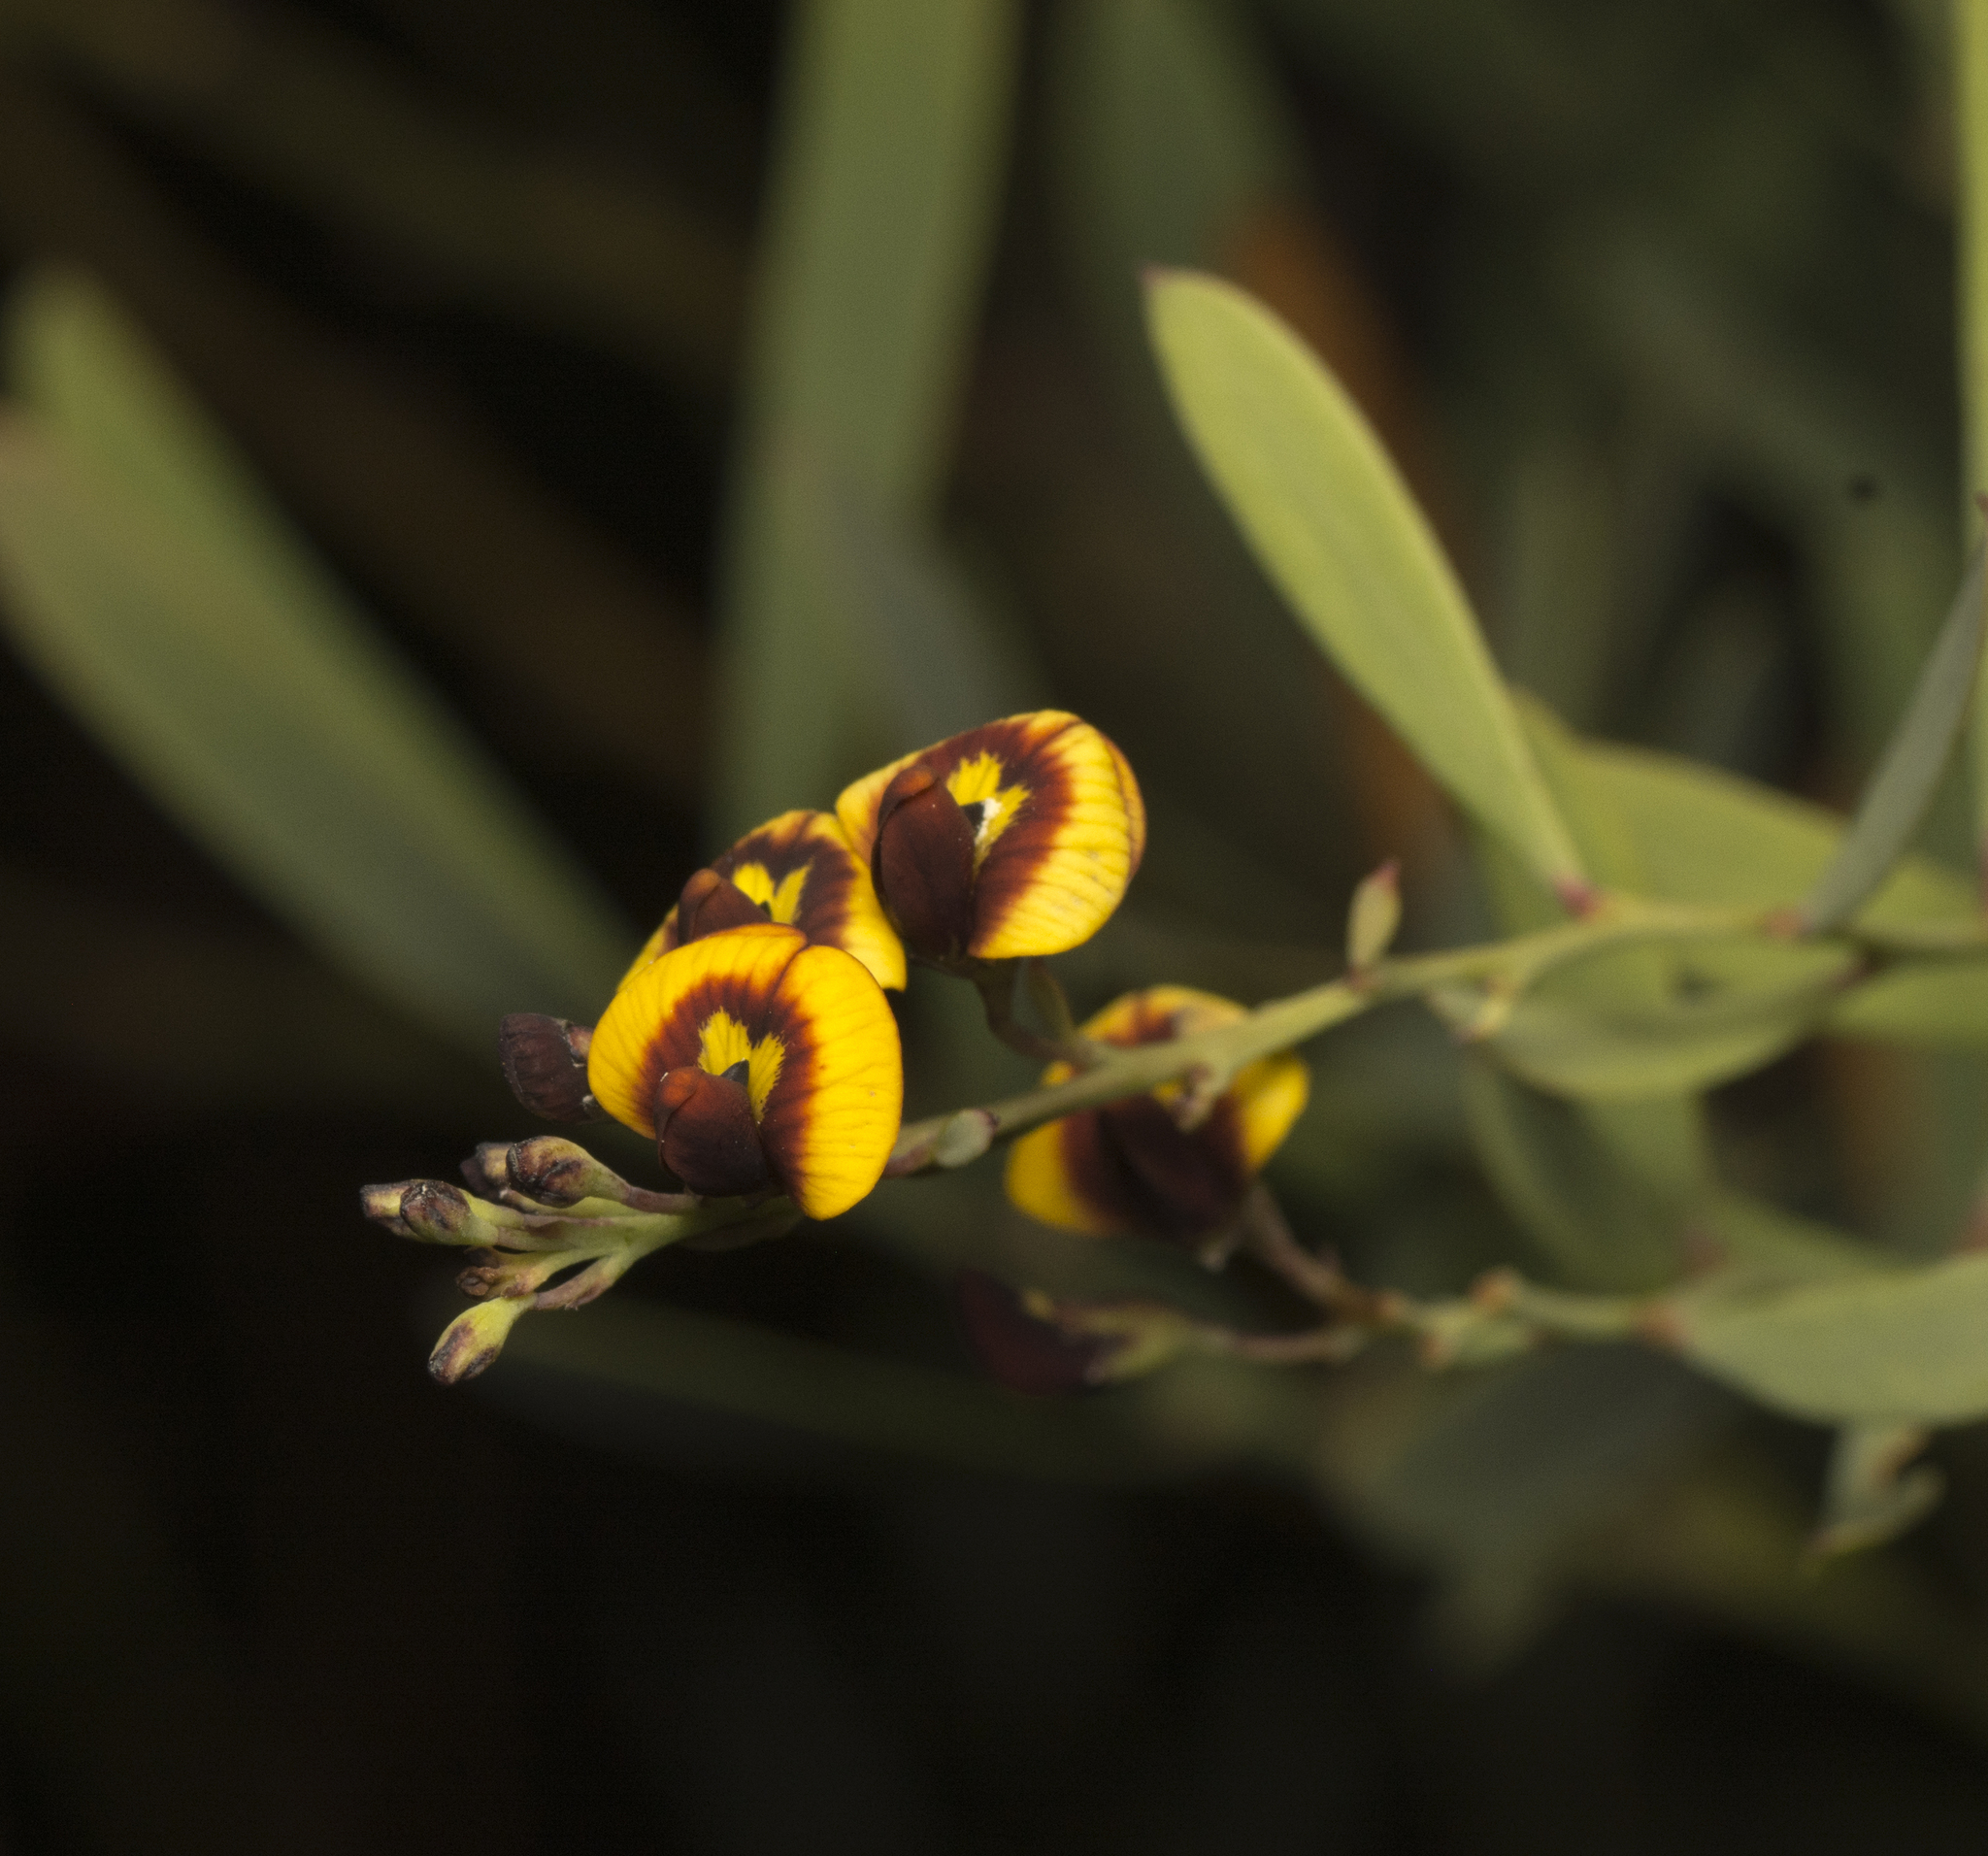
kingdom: Plantae
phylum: Tracheophyta
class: Magnoliopsida
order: Fabales
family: Fabaceae
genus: Daviesia
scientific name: Daviesia mimosoides
